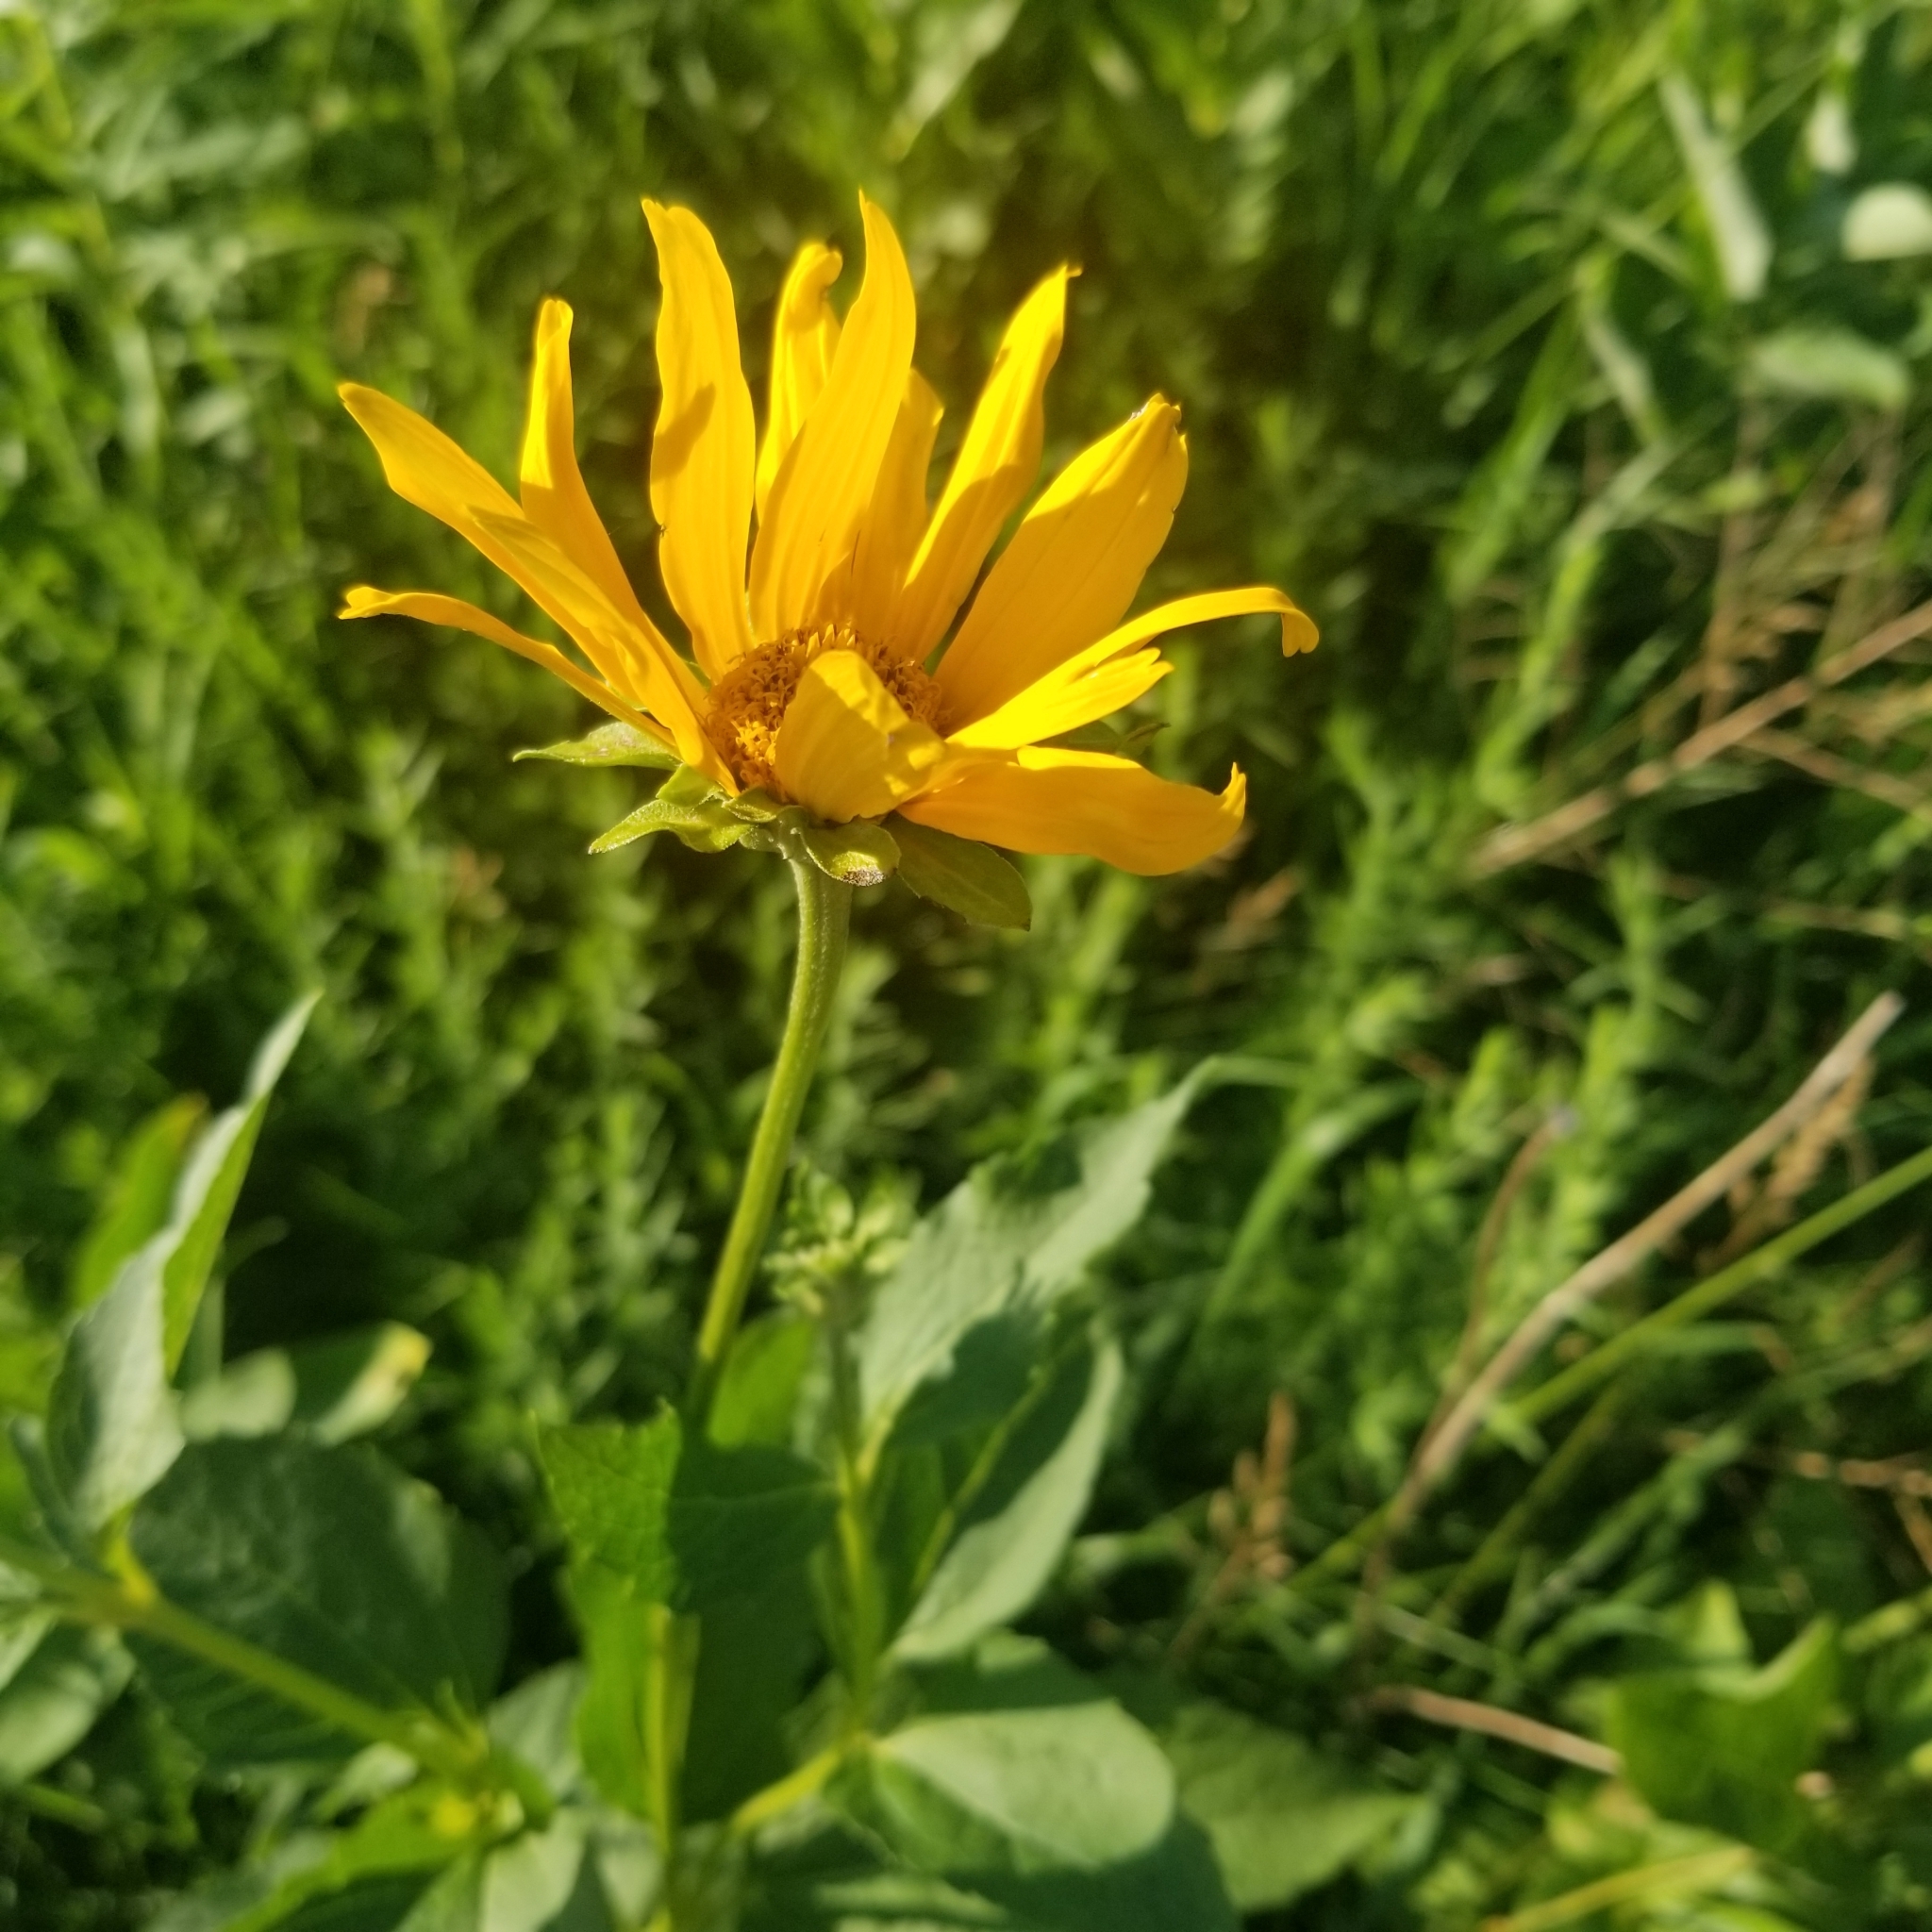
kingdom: Plantae
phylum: Tracheophyta
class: Magnoliopsida
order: Asterales
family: Asteraceae
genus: Heliopsis
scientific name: Heliopsis helianthoides
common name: False sunflower
